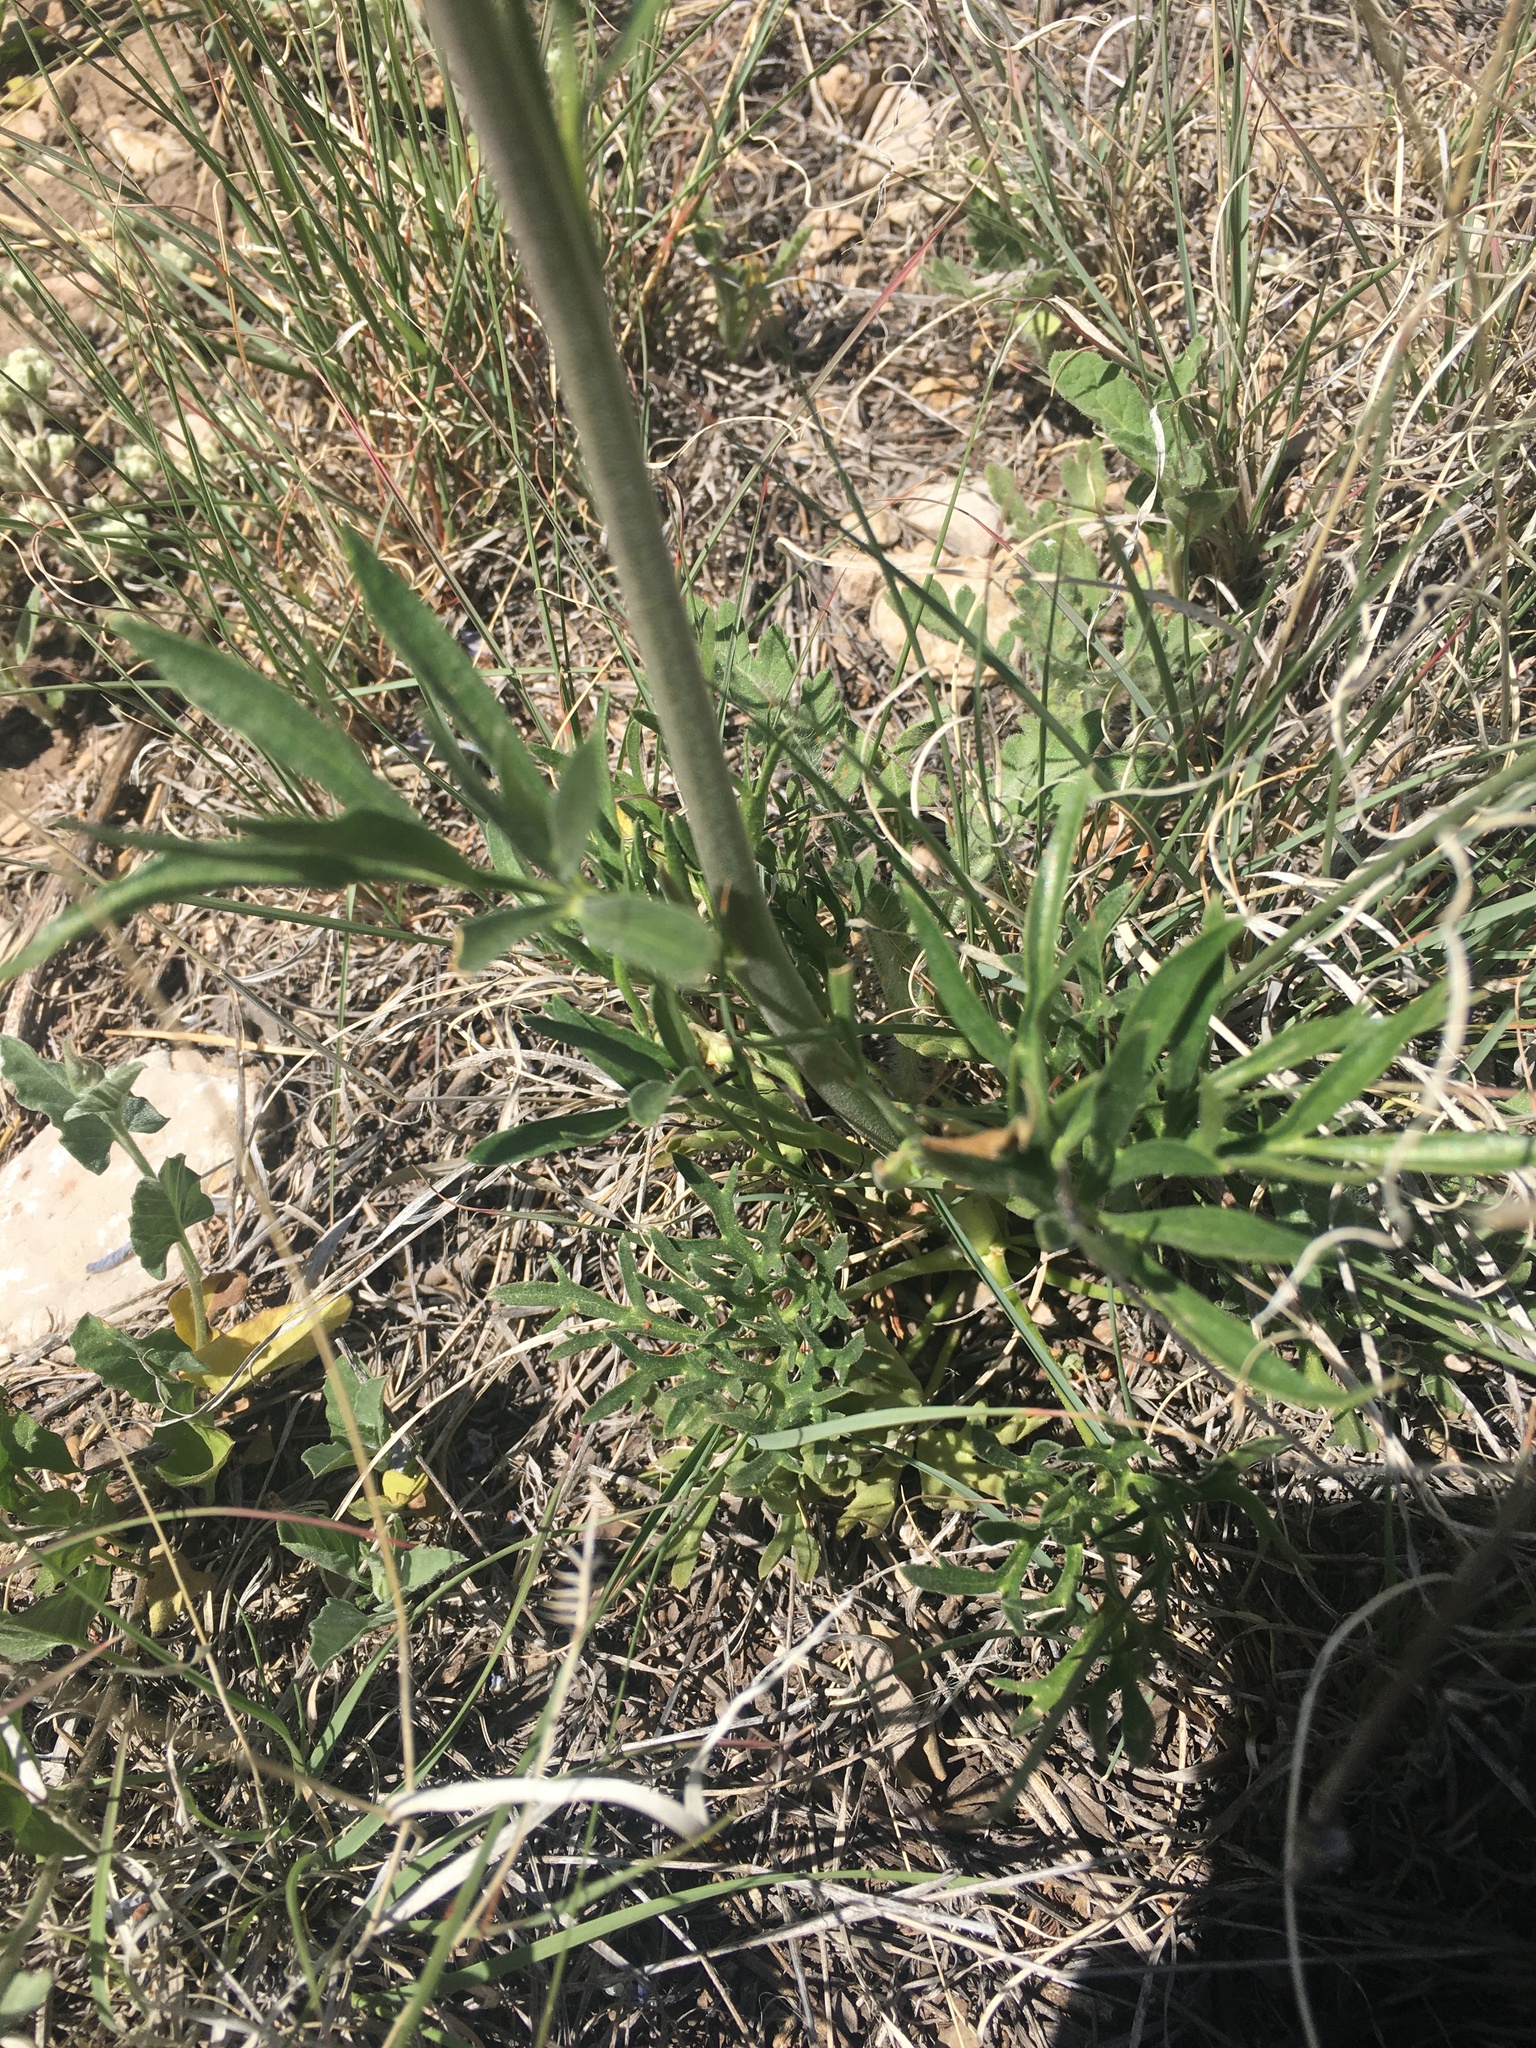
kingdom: Plantae
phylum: Tracheophyta
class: Magnoliopsida
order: Ranunculales
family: Ranunculaceae
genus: Delphinium
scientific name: Delphinium wootonii
